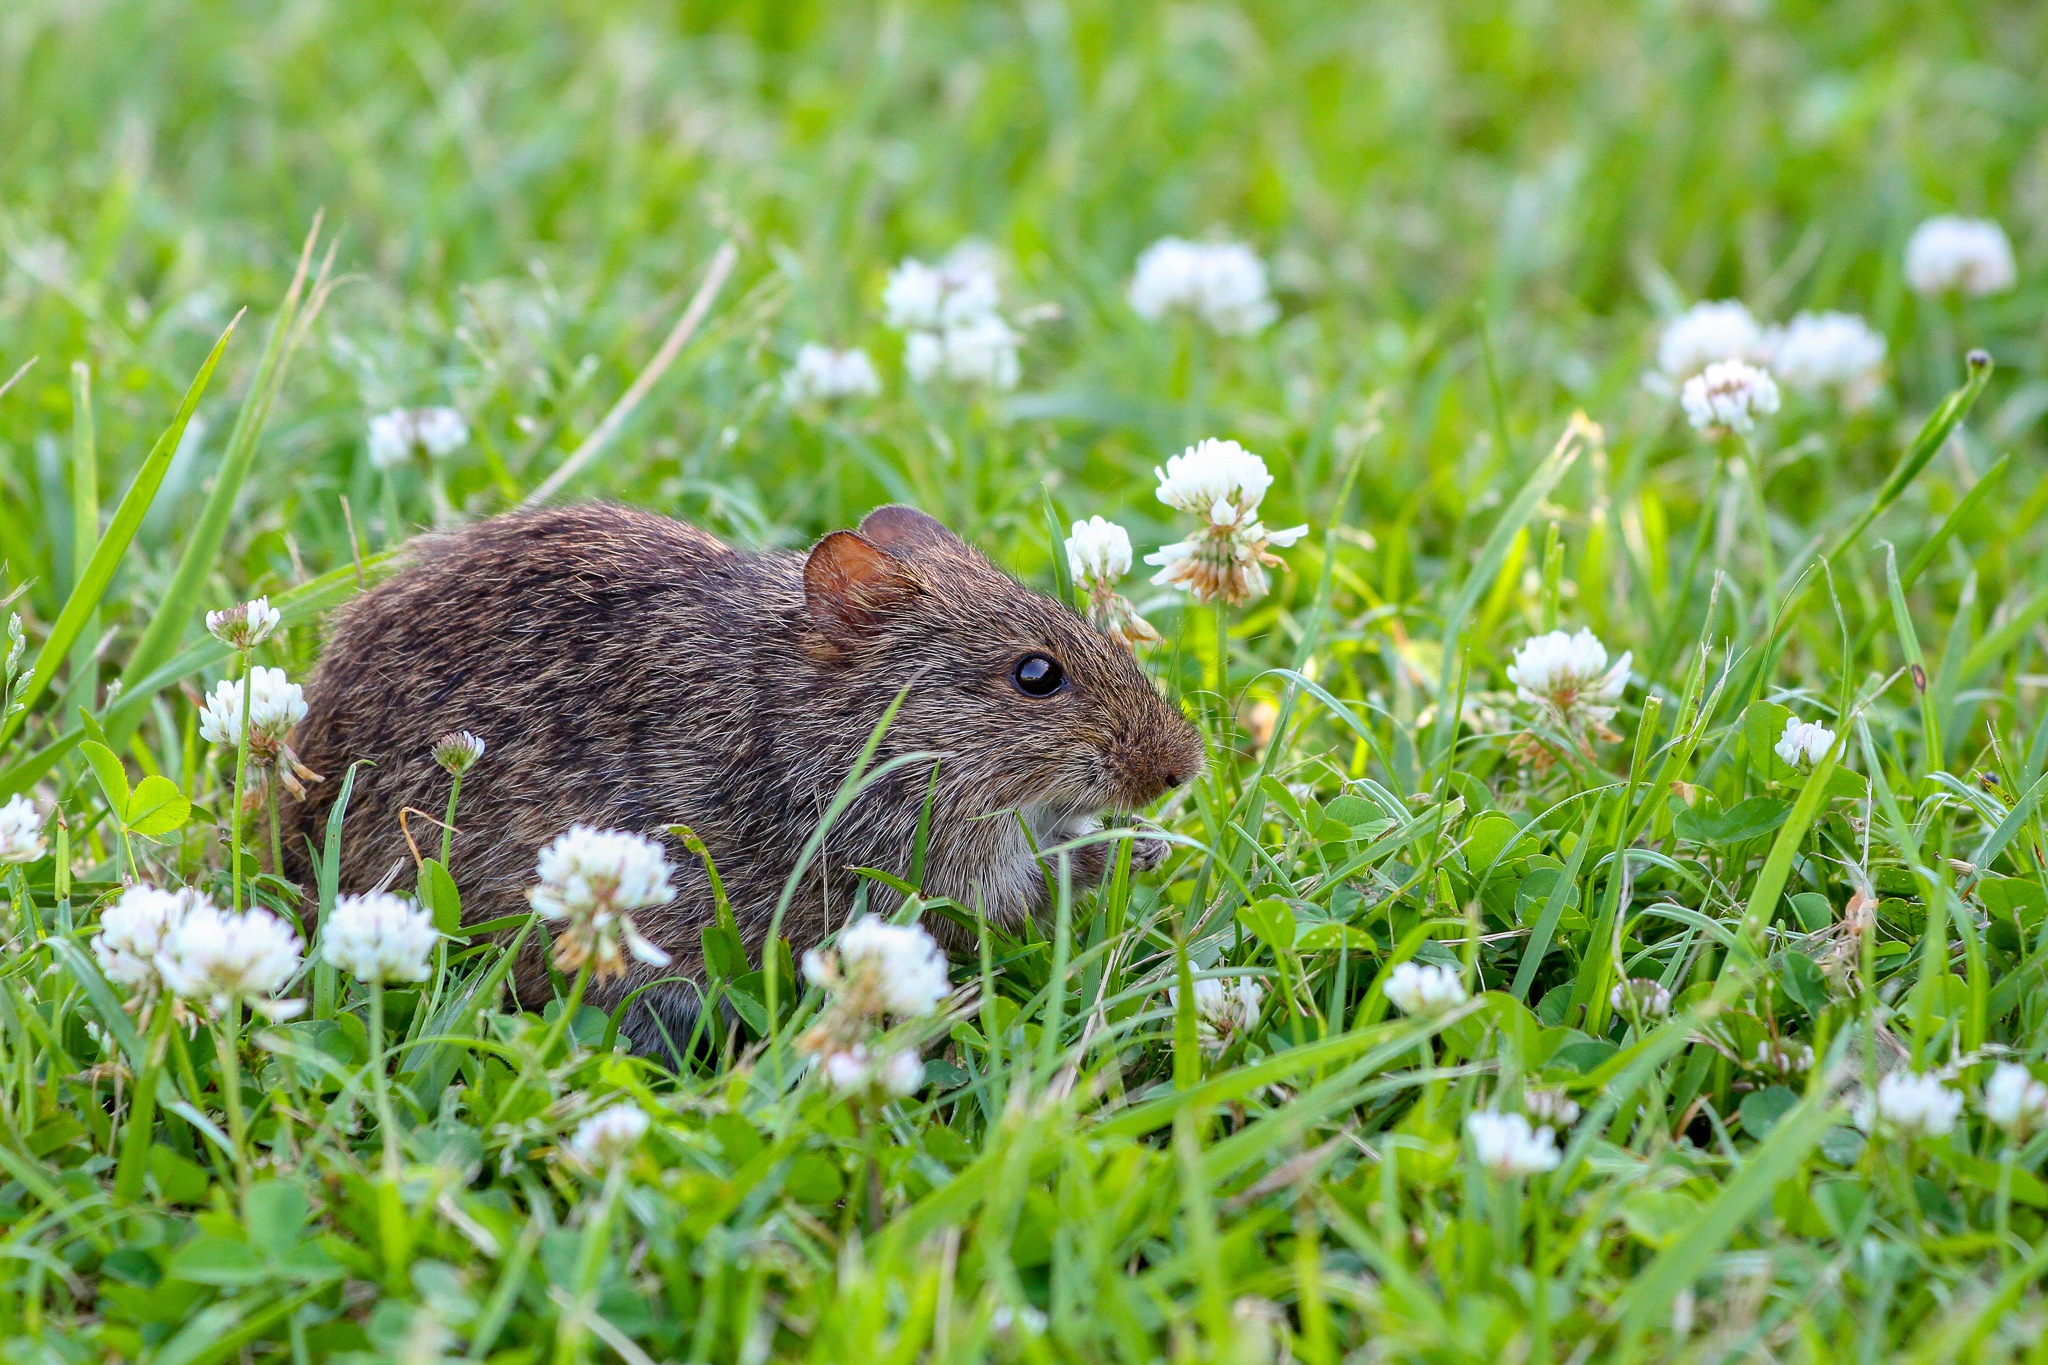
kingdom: Animalia
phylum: Chordata
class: Mammalia
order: Rodentia
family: Cricetidae
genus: Sigmodon
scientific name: Sigmodon hispidus
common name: Hispid cotton rat
